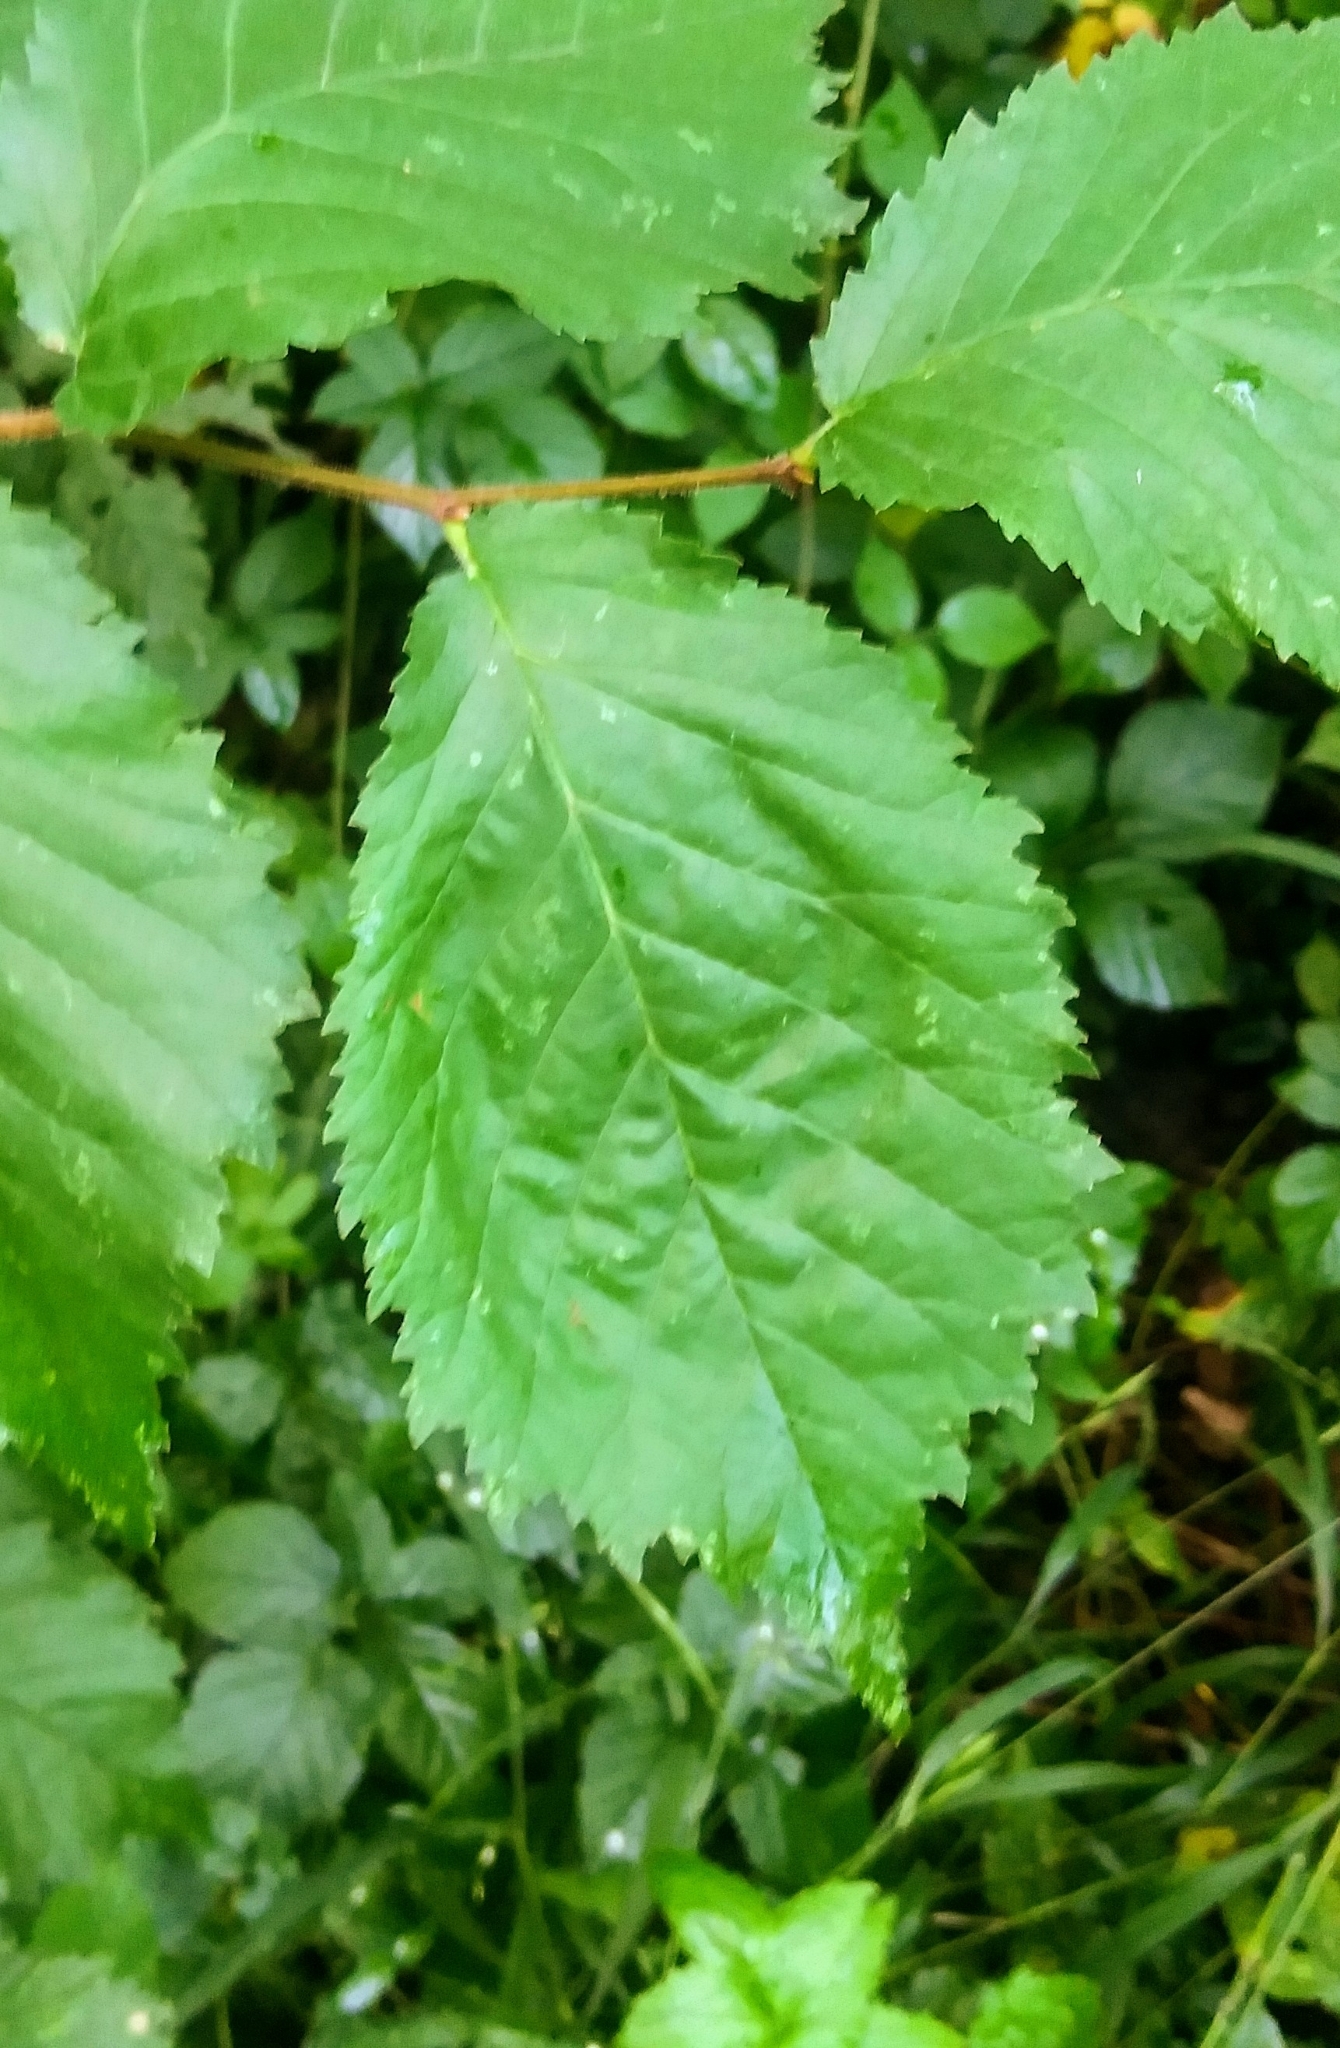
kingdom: Plantae
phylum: Tracheophyta
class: Magnoliopsida
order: Rosales
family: Ulmaceae
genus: Ulmus
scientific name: Ulmus glabra
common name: Wych elm
